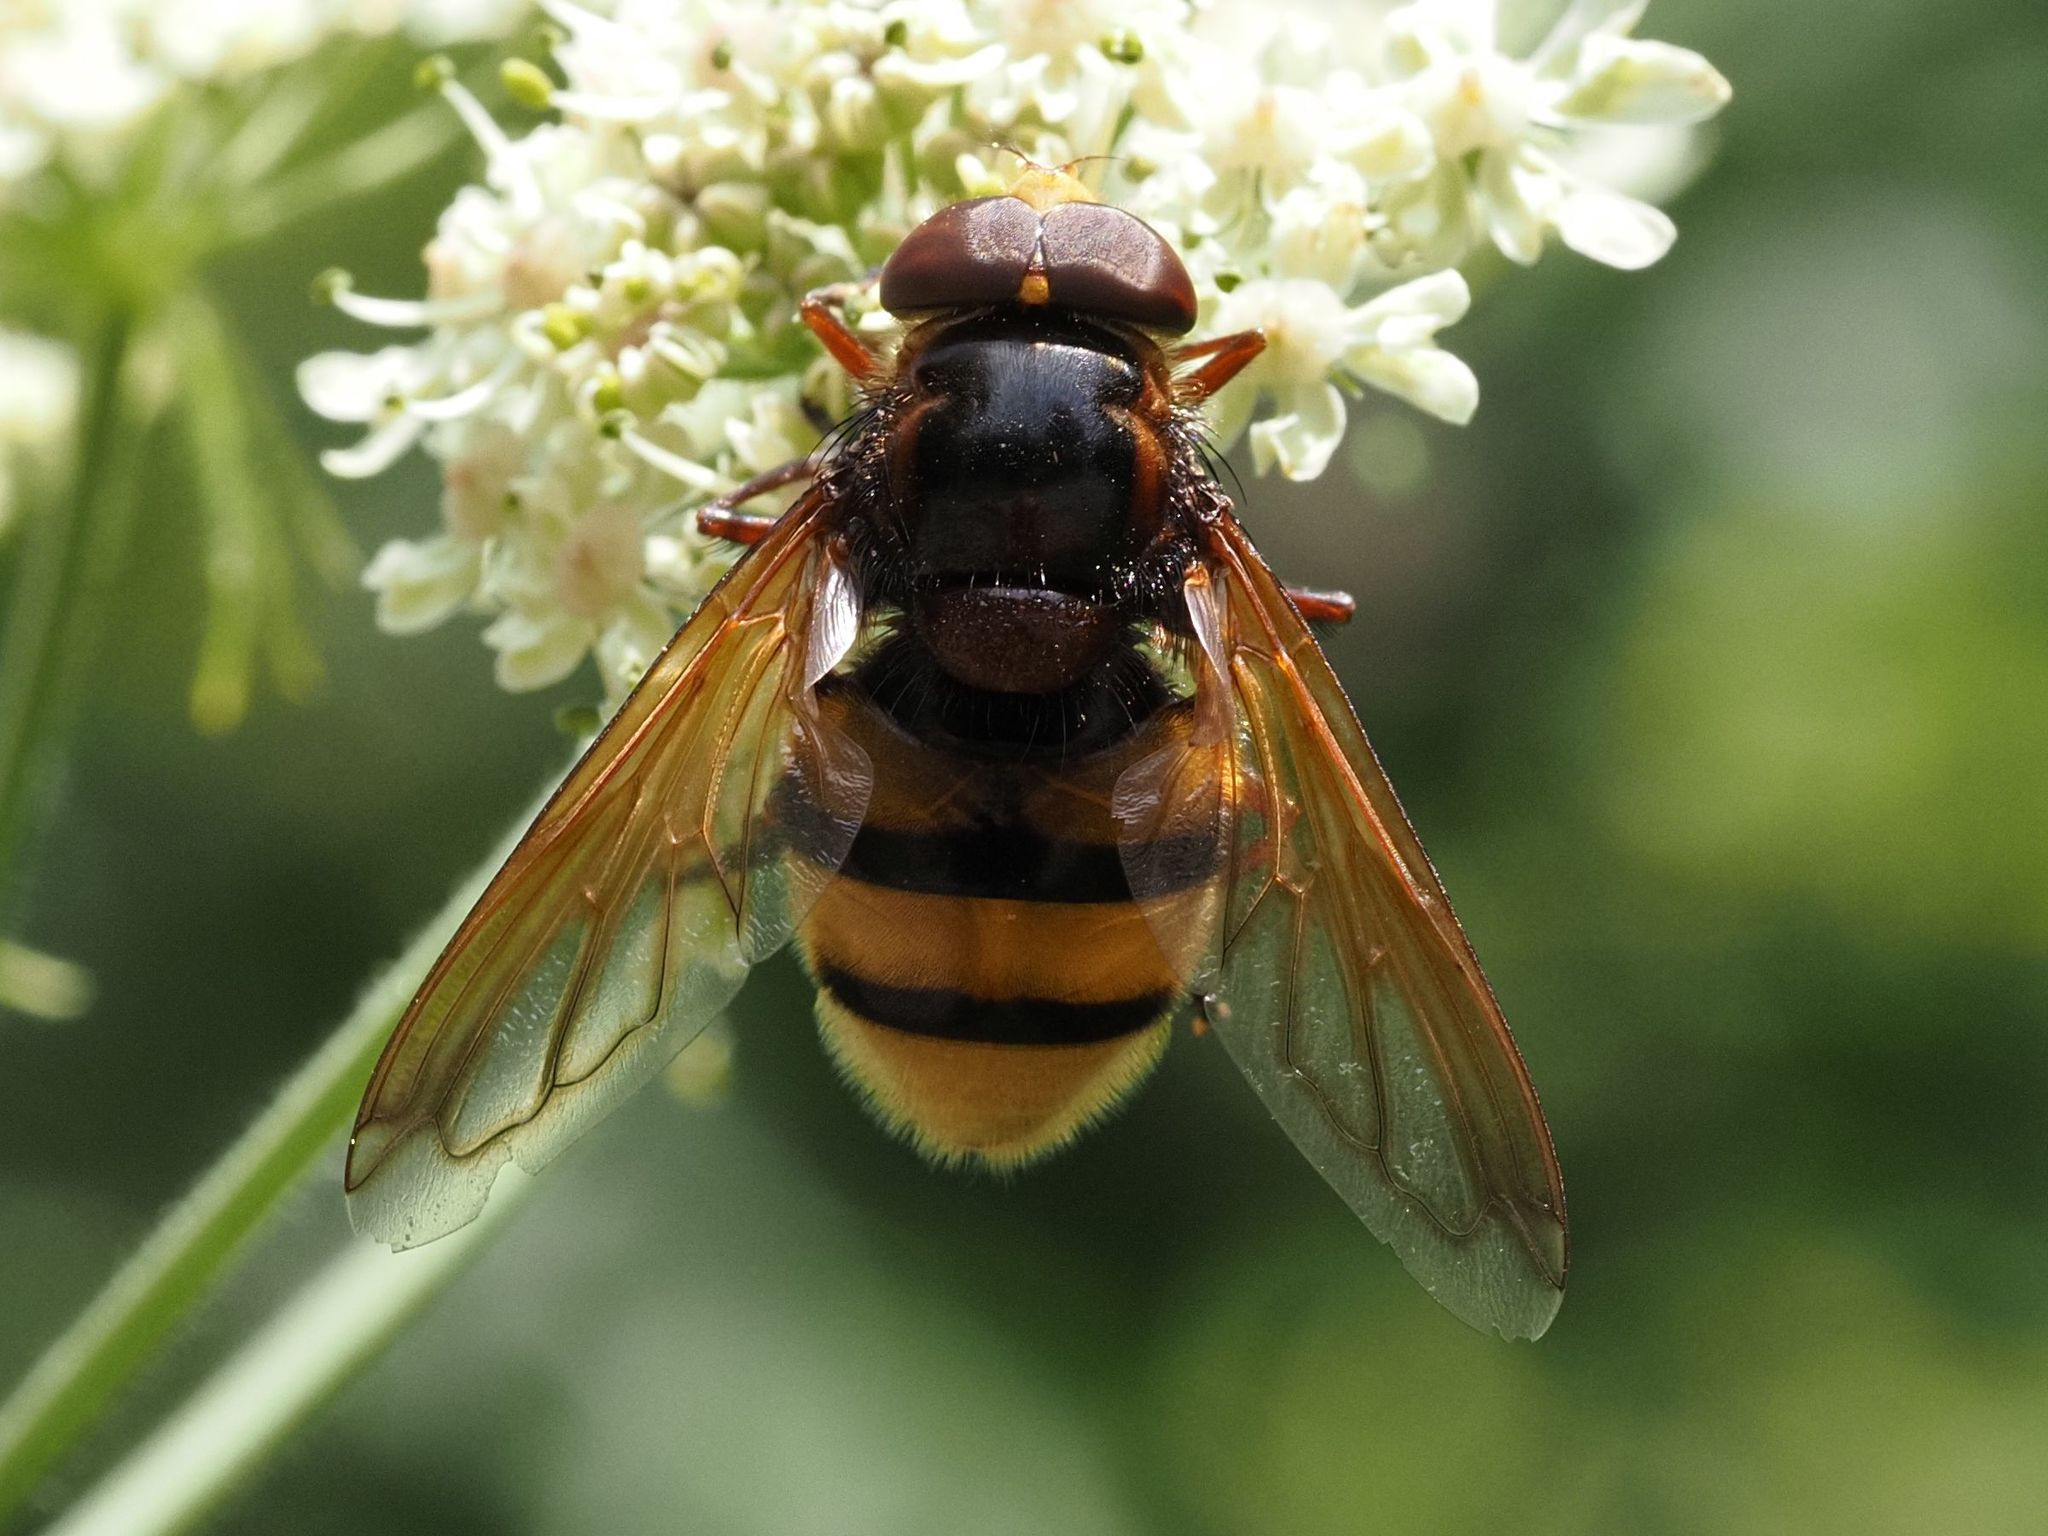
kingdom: Animalia
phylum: Arthropoda
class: Insecta
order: Diptera
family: Syrphidae
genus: Volucella
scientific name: Volucella zonaria
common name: Hornet hoverfly
